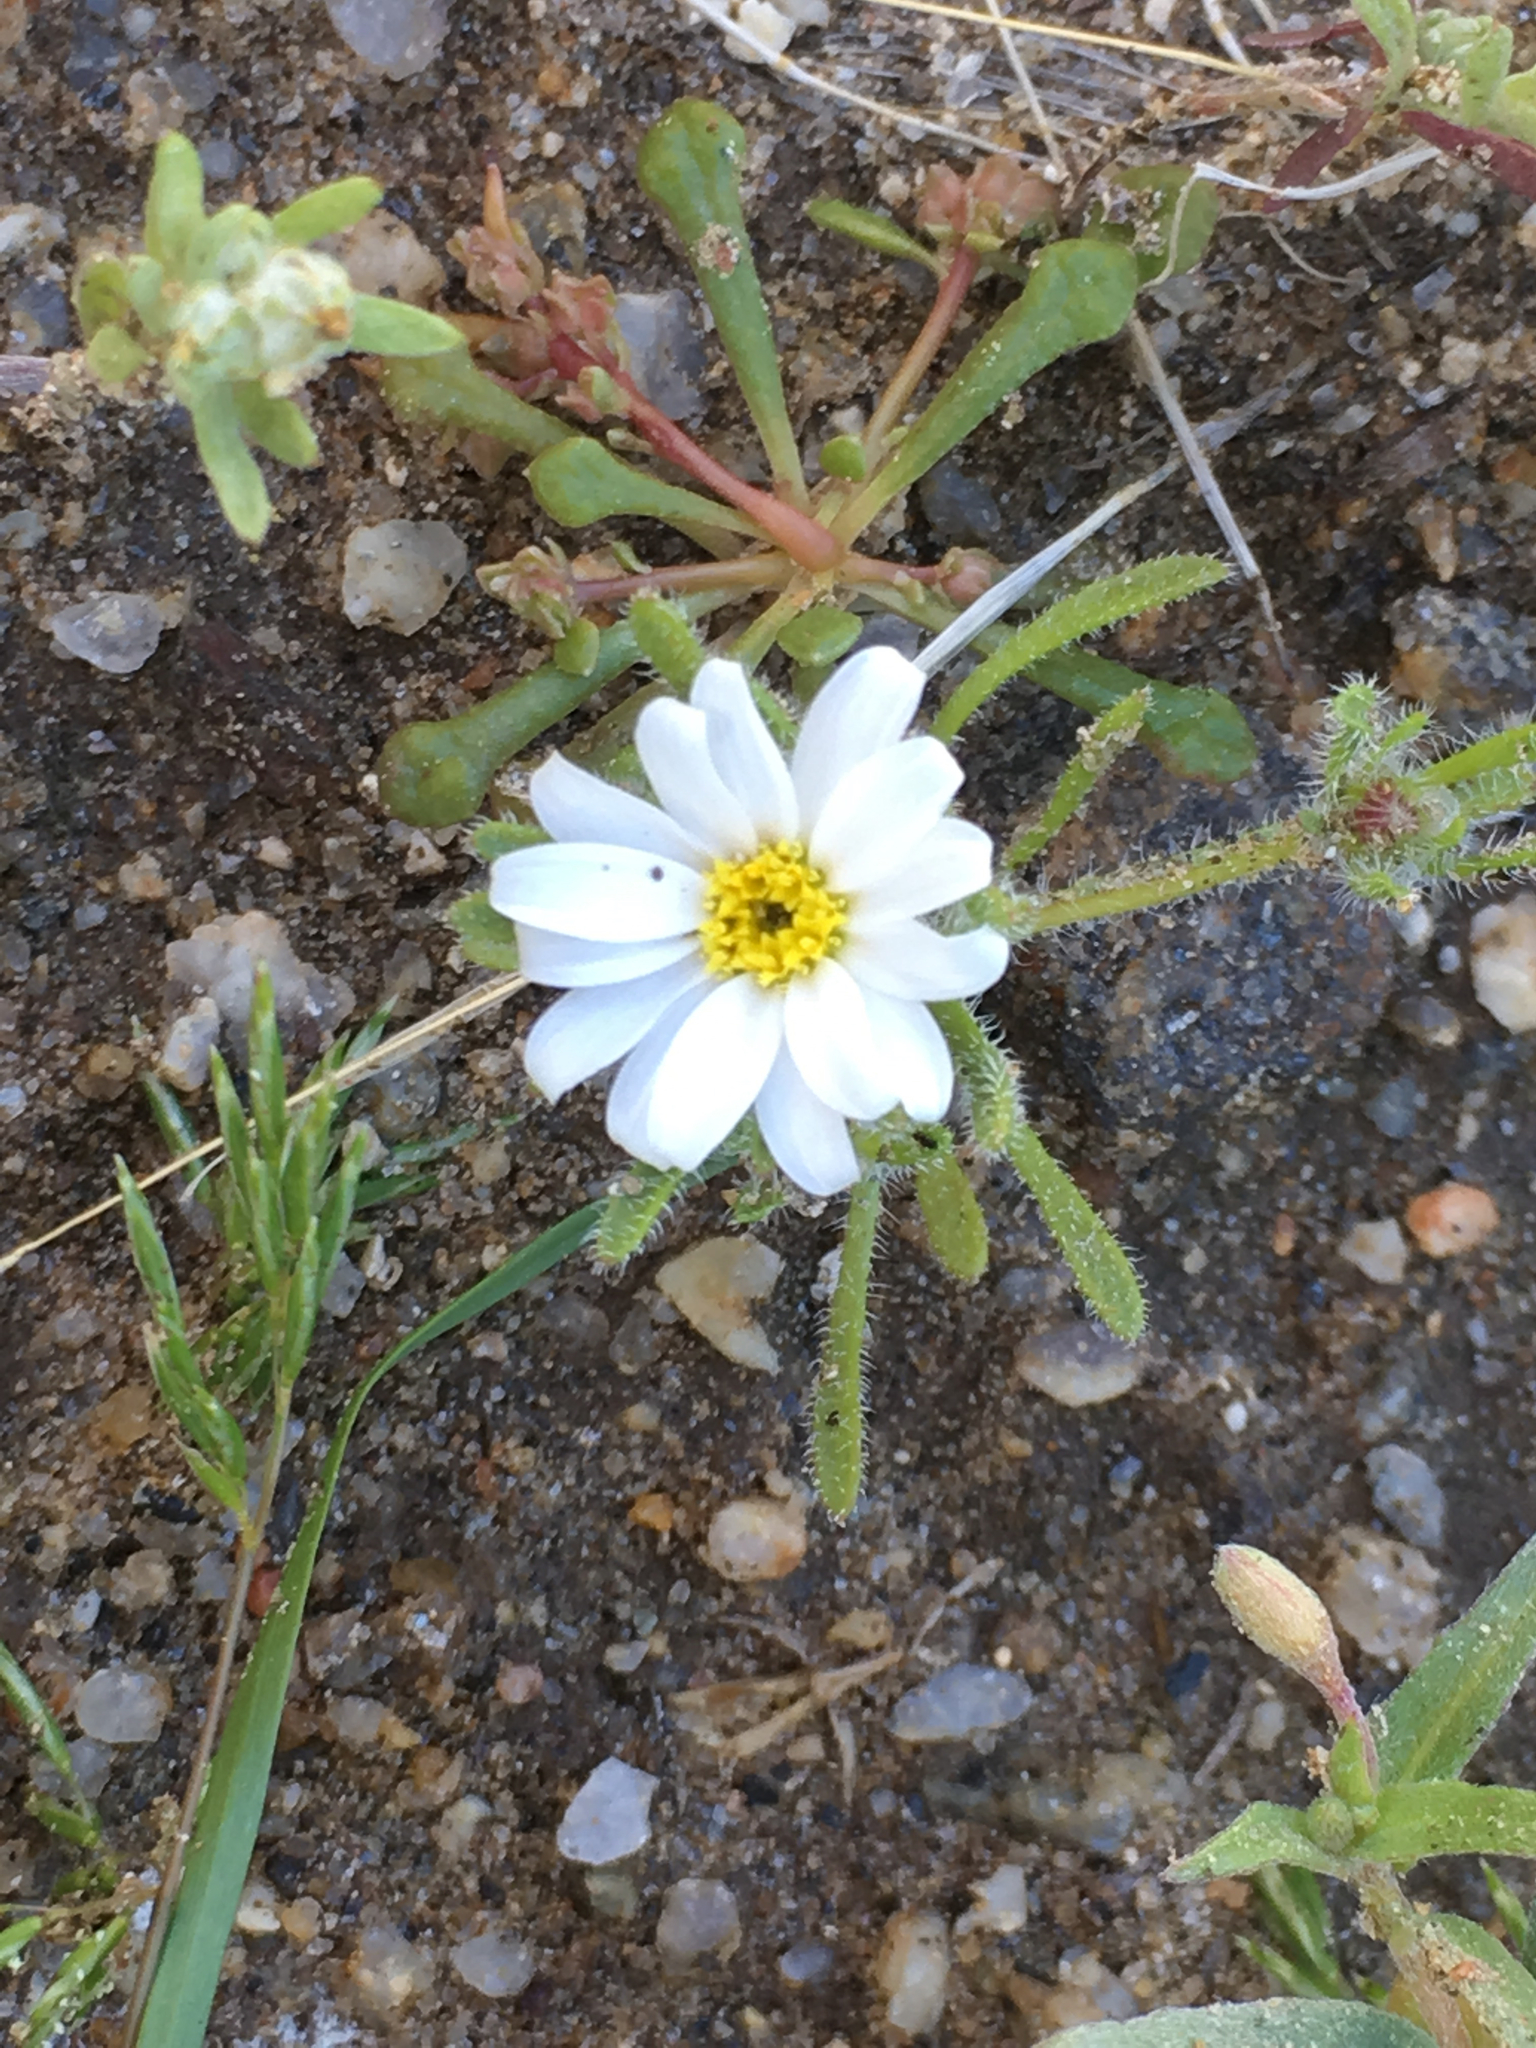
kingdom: Plantae
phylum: Tracheophyta
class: Magnoliopsida
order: Asterales
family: Asteraceae
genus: Monoptilon
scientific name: Monoptilon bellioides
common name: Bristly desertstar
